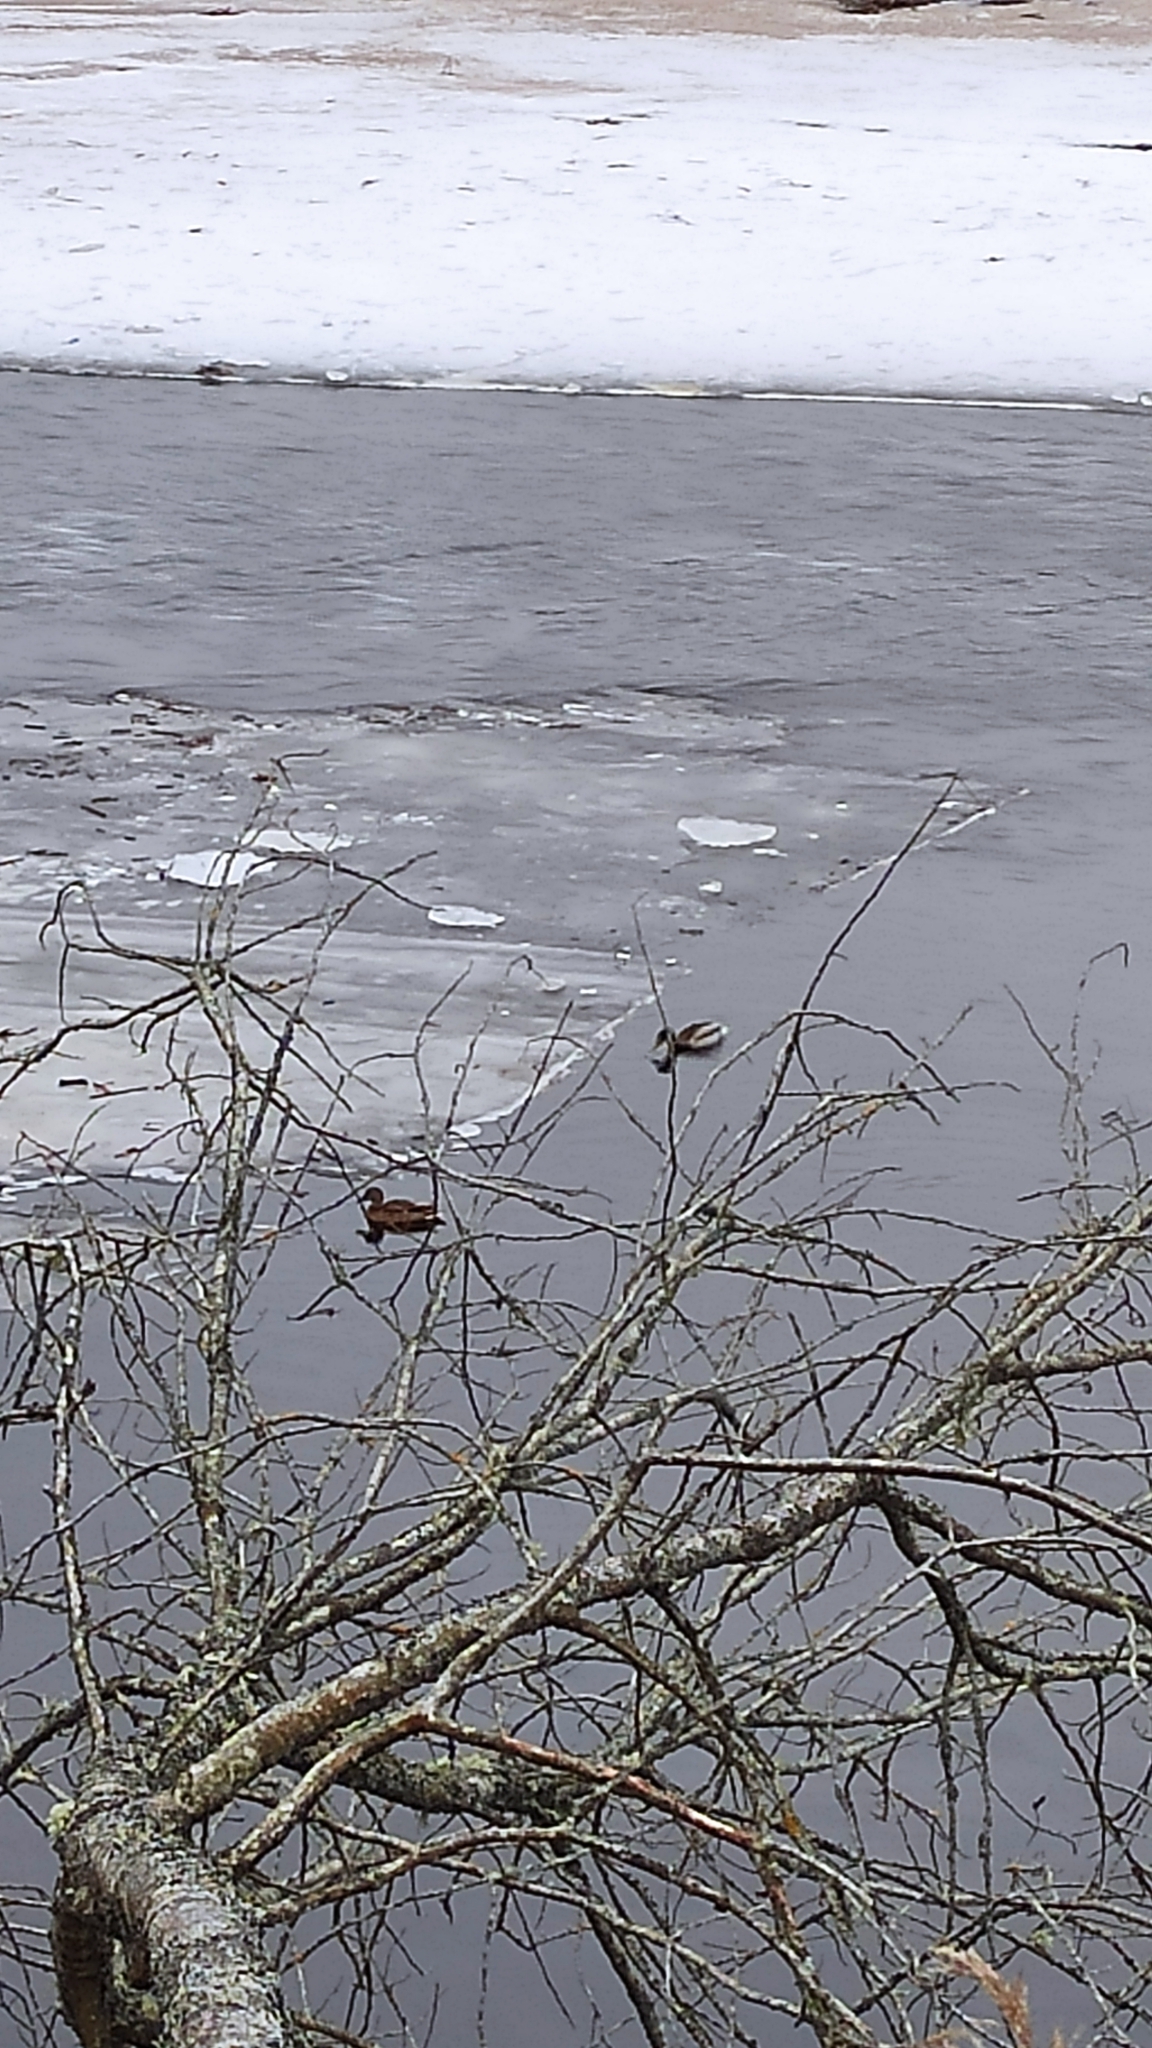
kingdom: Animalia
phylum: Chordata
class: Aves
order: Anseriformes
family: Anatidae
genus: Anas
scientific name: Anas platyrhynchos
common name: Mallard
